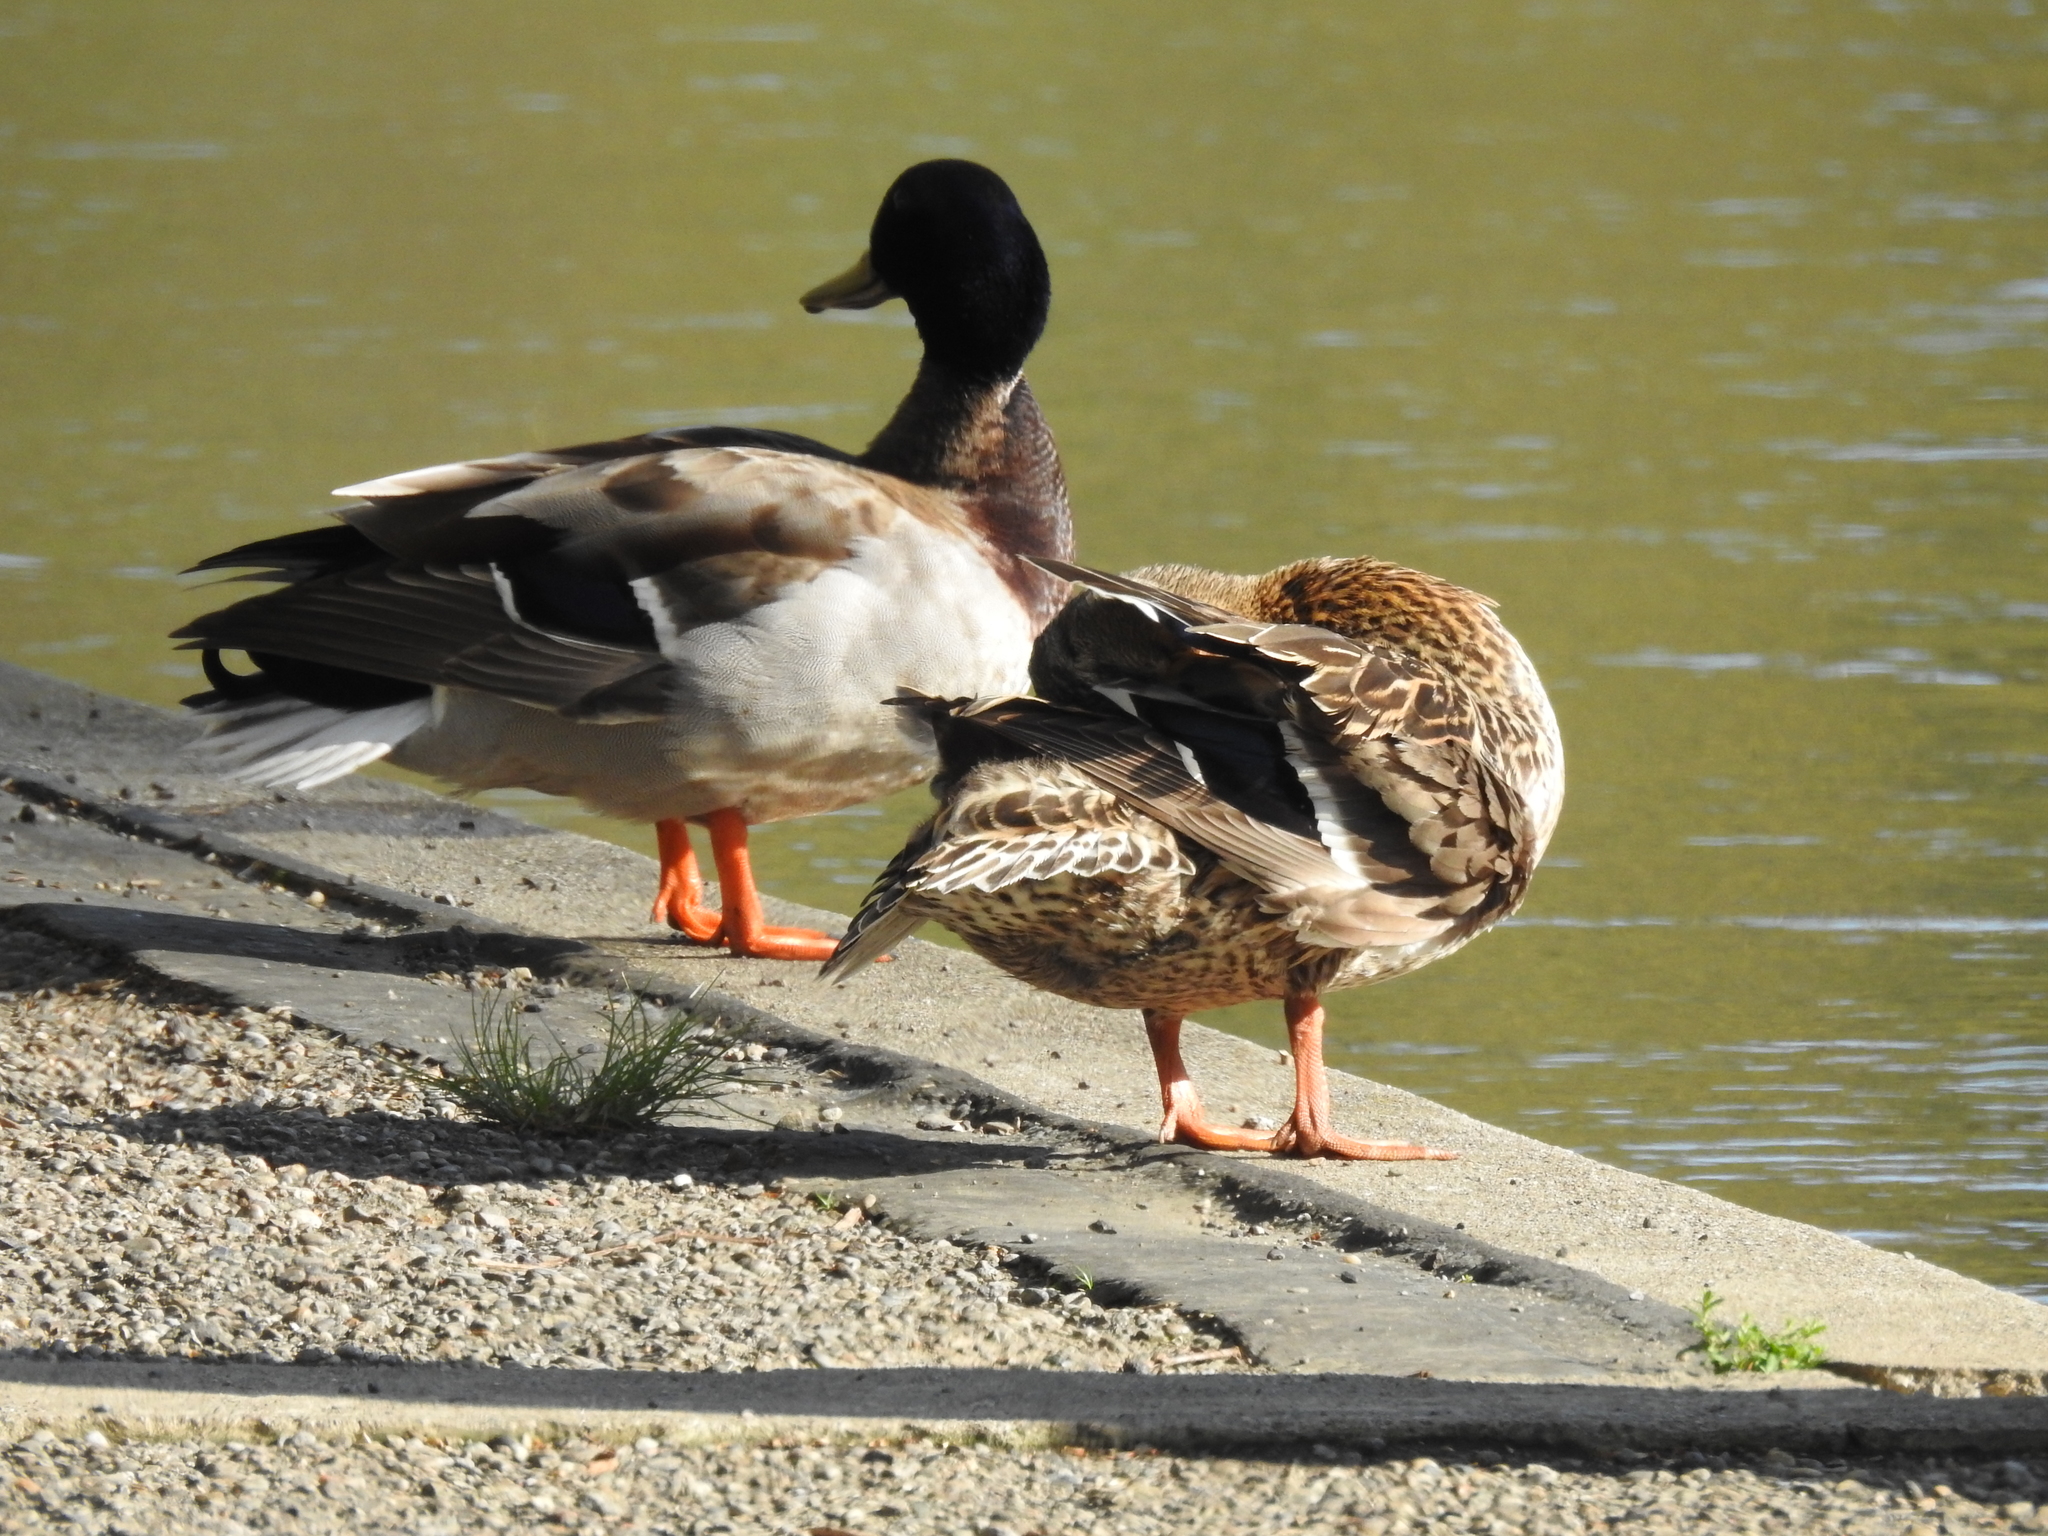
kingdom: Animalia
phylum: Chordata
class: Aves
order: Anseriformes
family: Anatidae
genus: Anas
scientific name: Anas platyrhynchos
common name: Mallard
